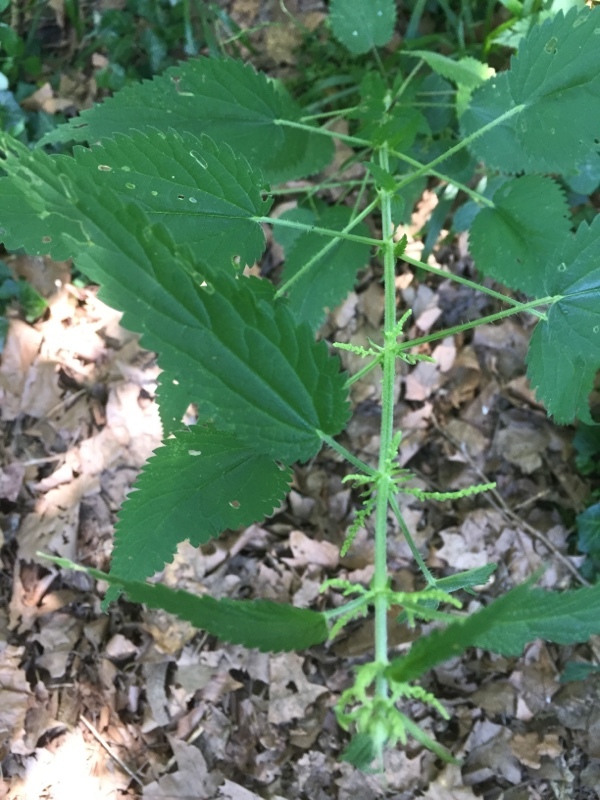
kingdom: Plantae
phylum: Tracheophyta
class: Magnoliopsida
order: Rosales
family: Urticaceae
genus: Urtica
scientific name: Urtica dioica
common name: Common nettle
